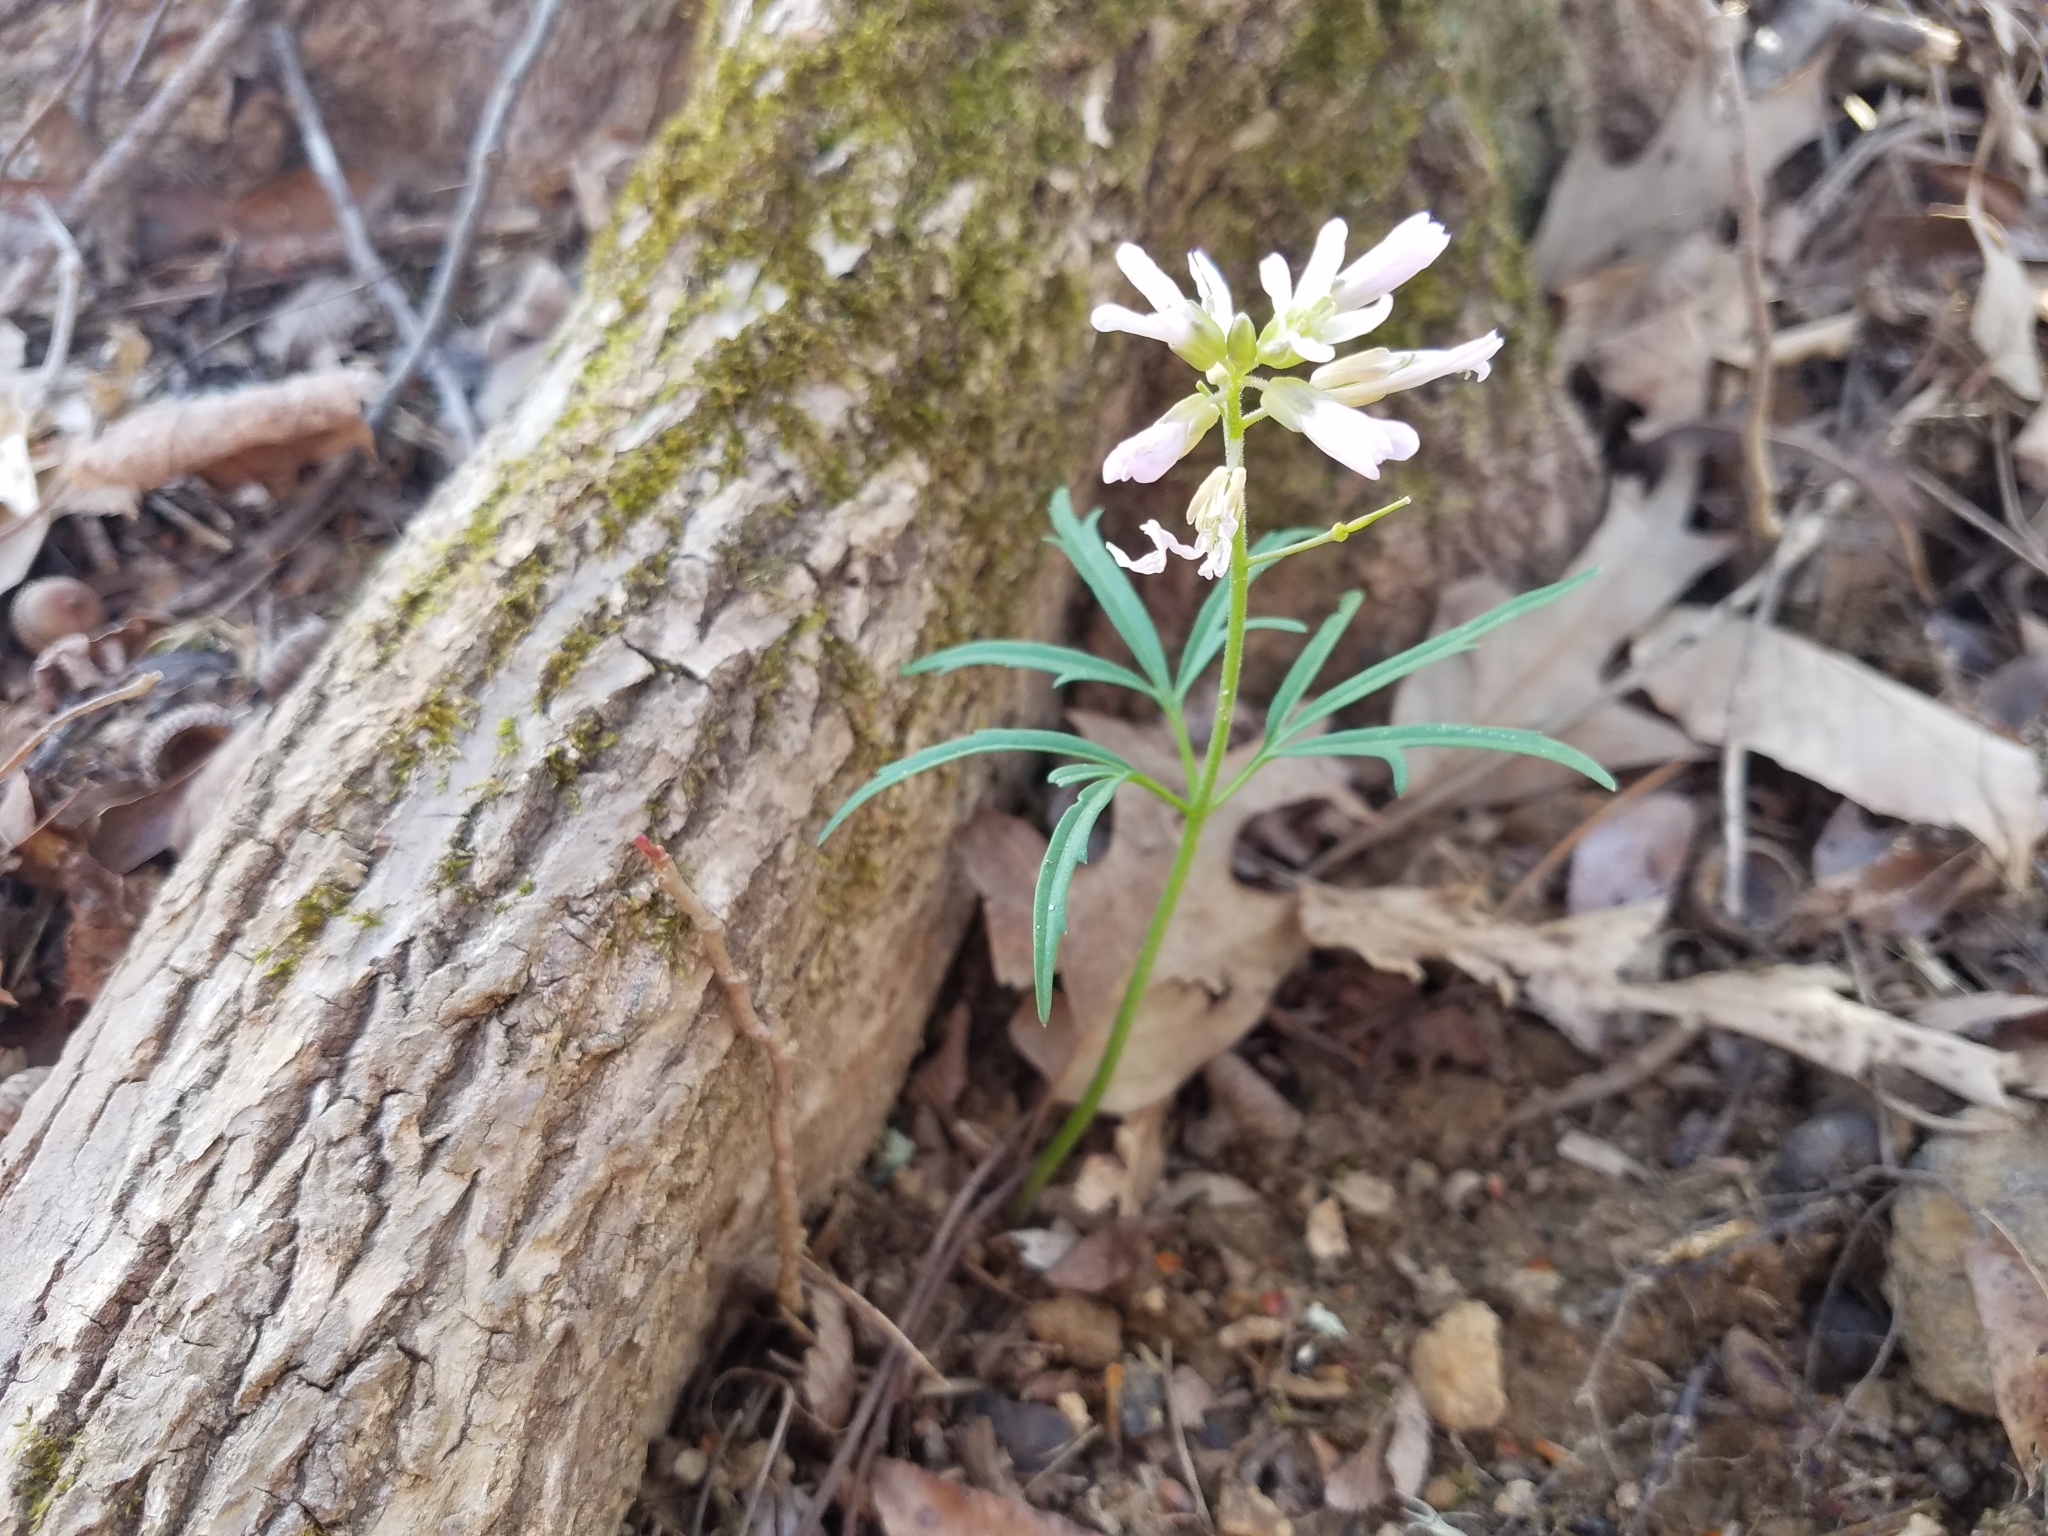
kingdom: Plantae
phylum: Tracheophyta
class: Magnoliopsida
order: Brassicales
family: Brassicaceae
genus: Cardamine
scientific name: Cardamine concatenata
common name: Cut-leaf toothcup
